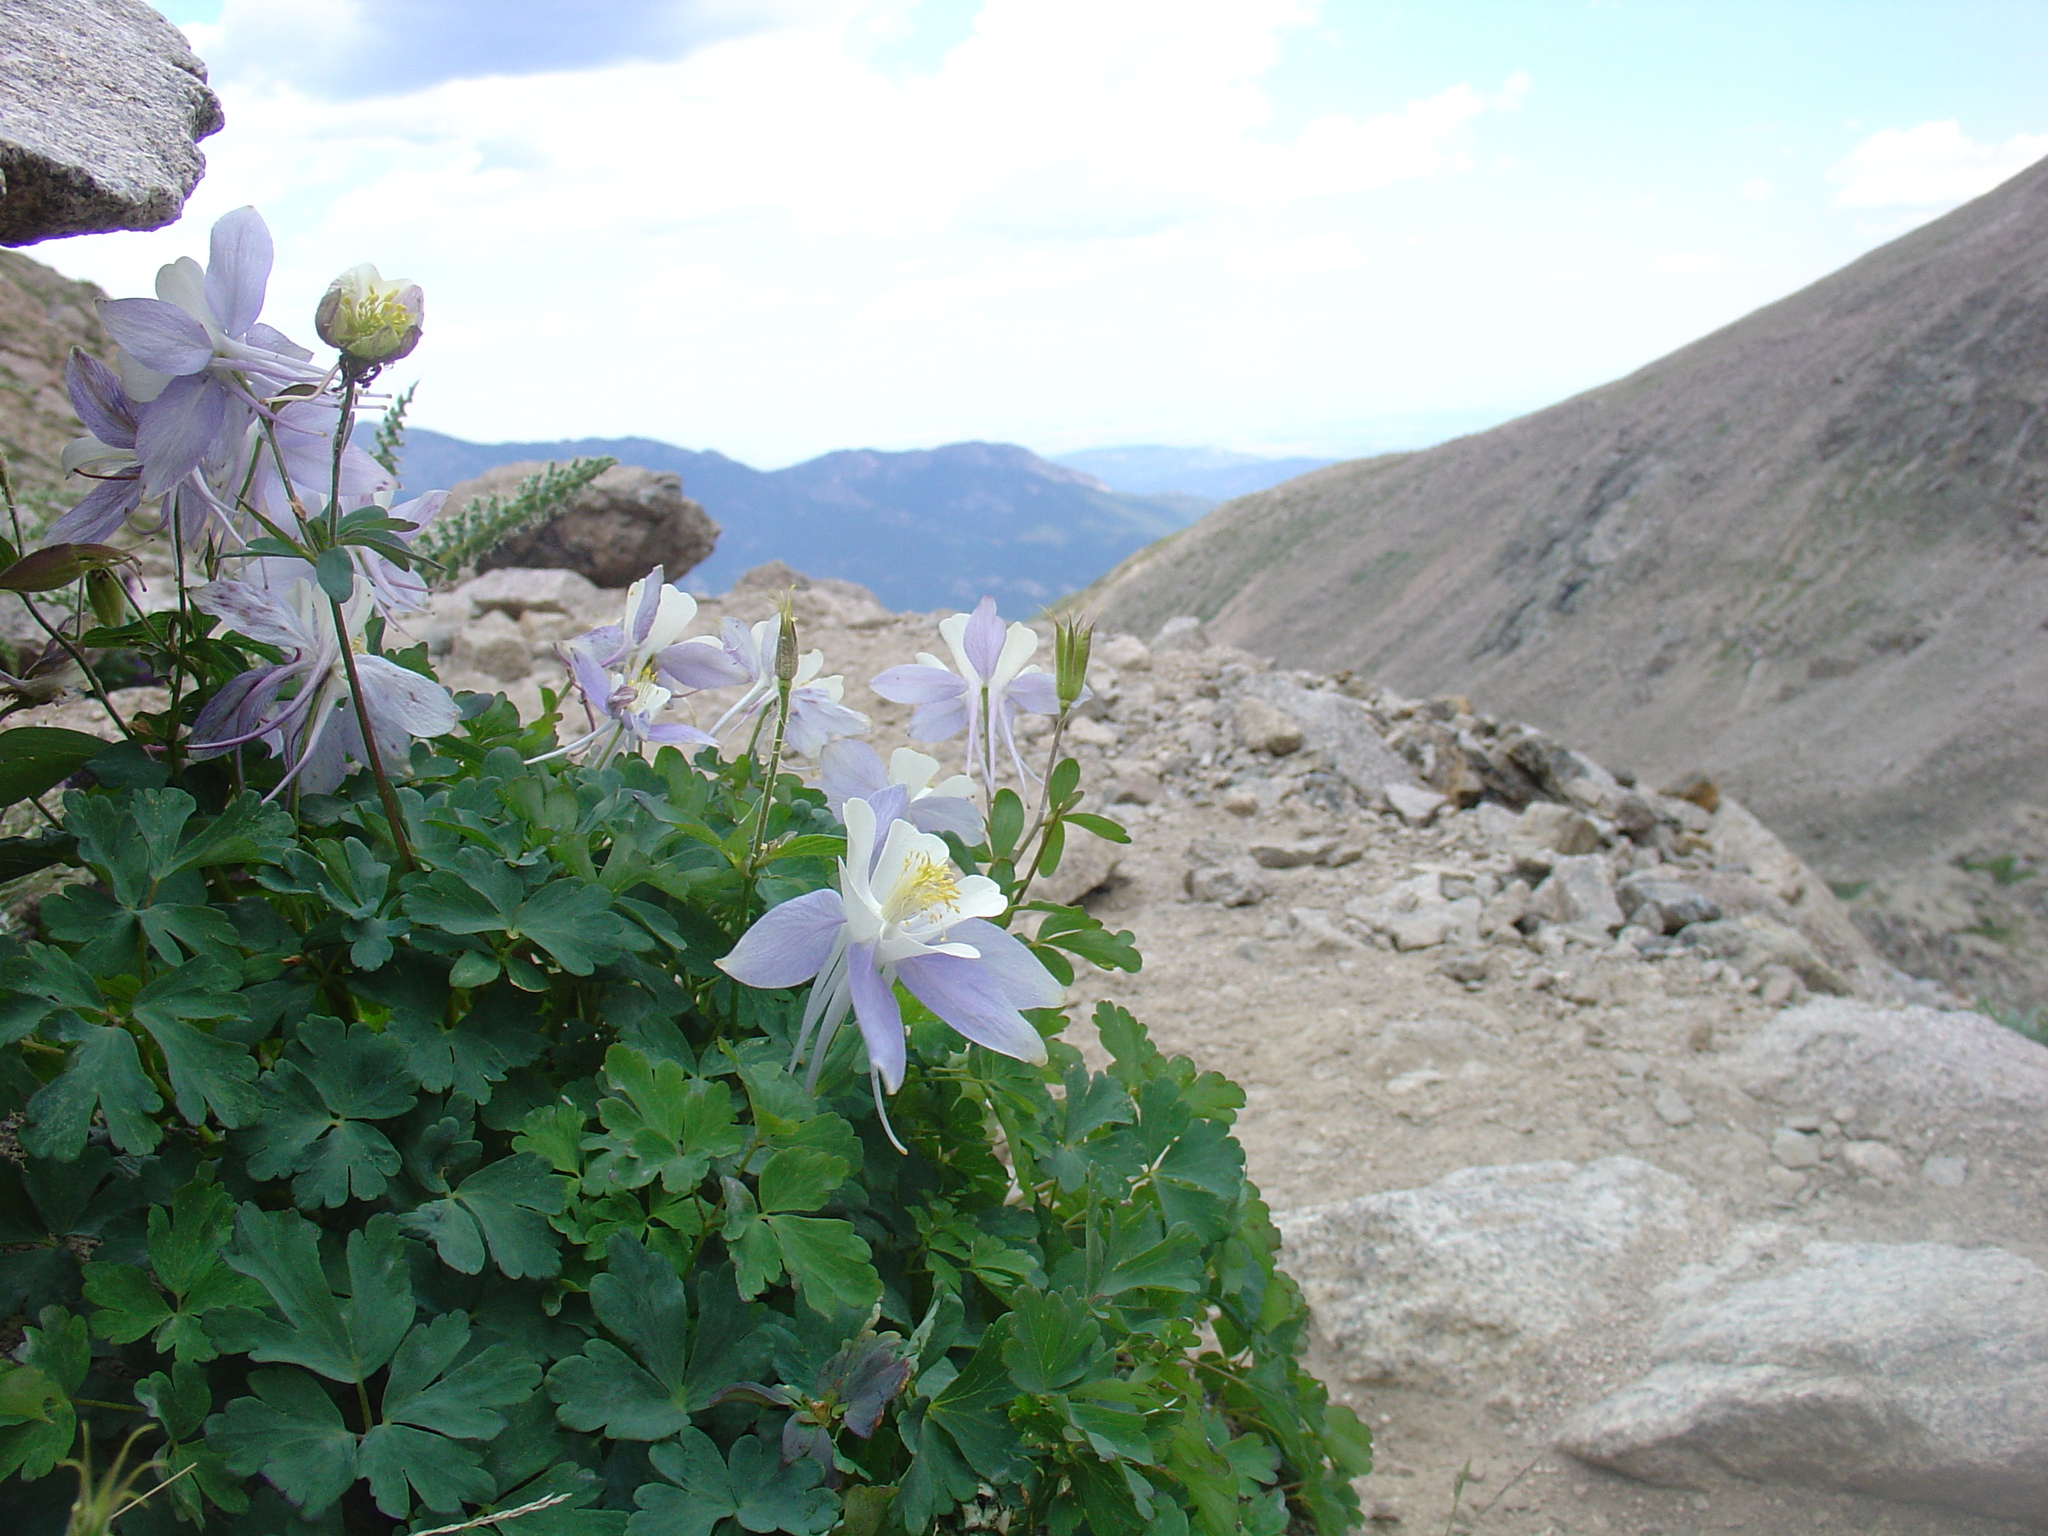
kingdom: Plantae
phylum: Tracheophyta
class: Magnoliopsida
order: Ranunculales
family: Ranunculaceae
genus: Aquilegia
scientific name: Aquilegia coerulea
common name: Rocky mountain columbine
